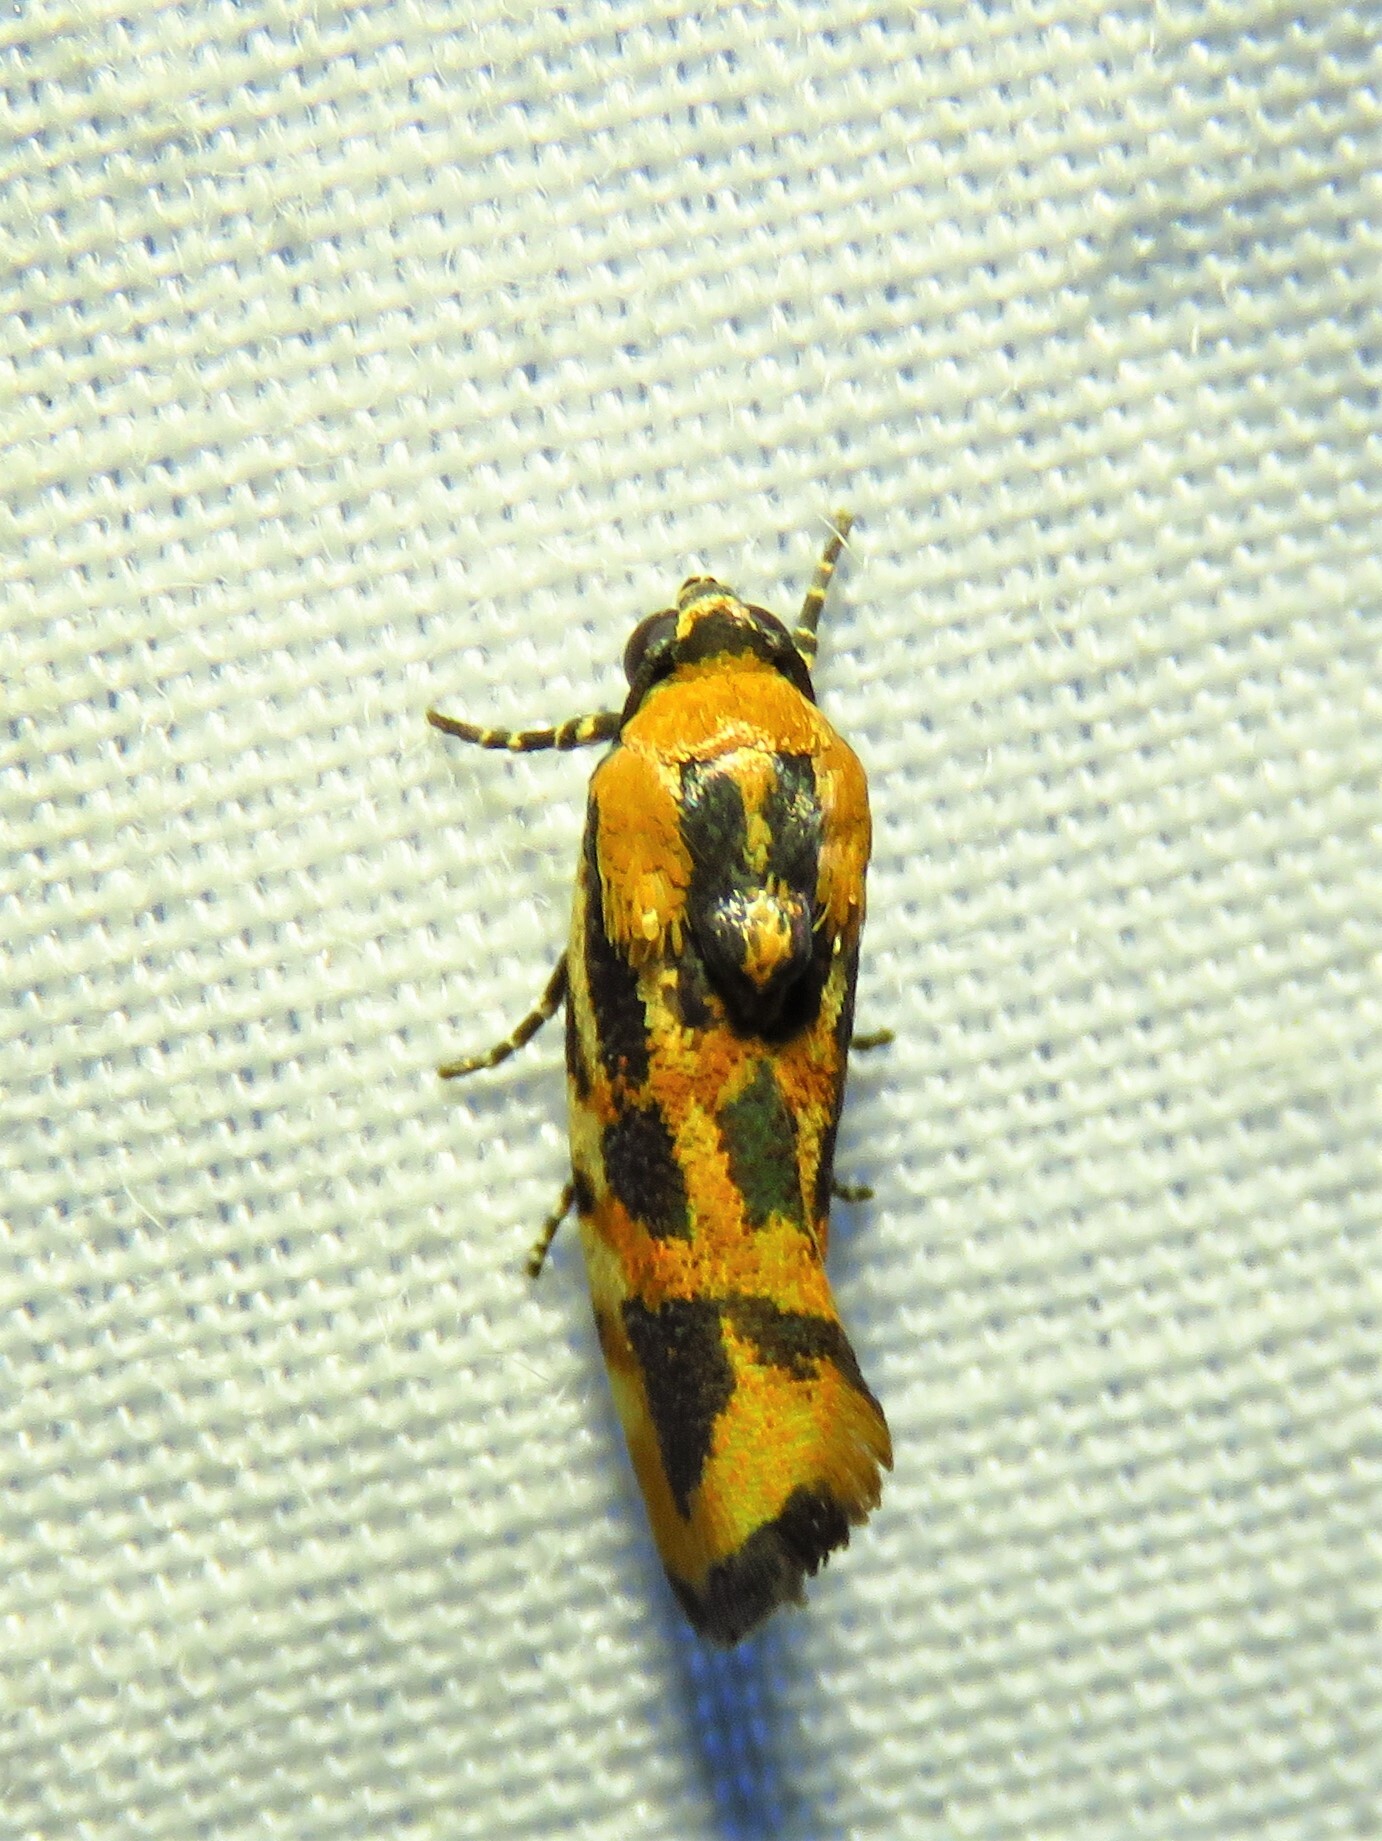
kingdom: Animalia
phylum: Arthropoda
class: Insecta
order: Lepidoptera
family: Noctuidae
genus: Acontia
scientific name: Acontia leo
